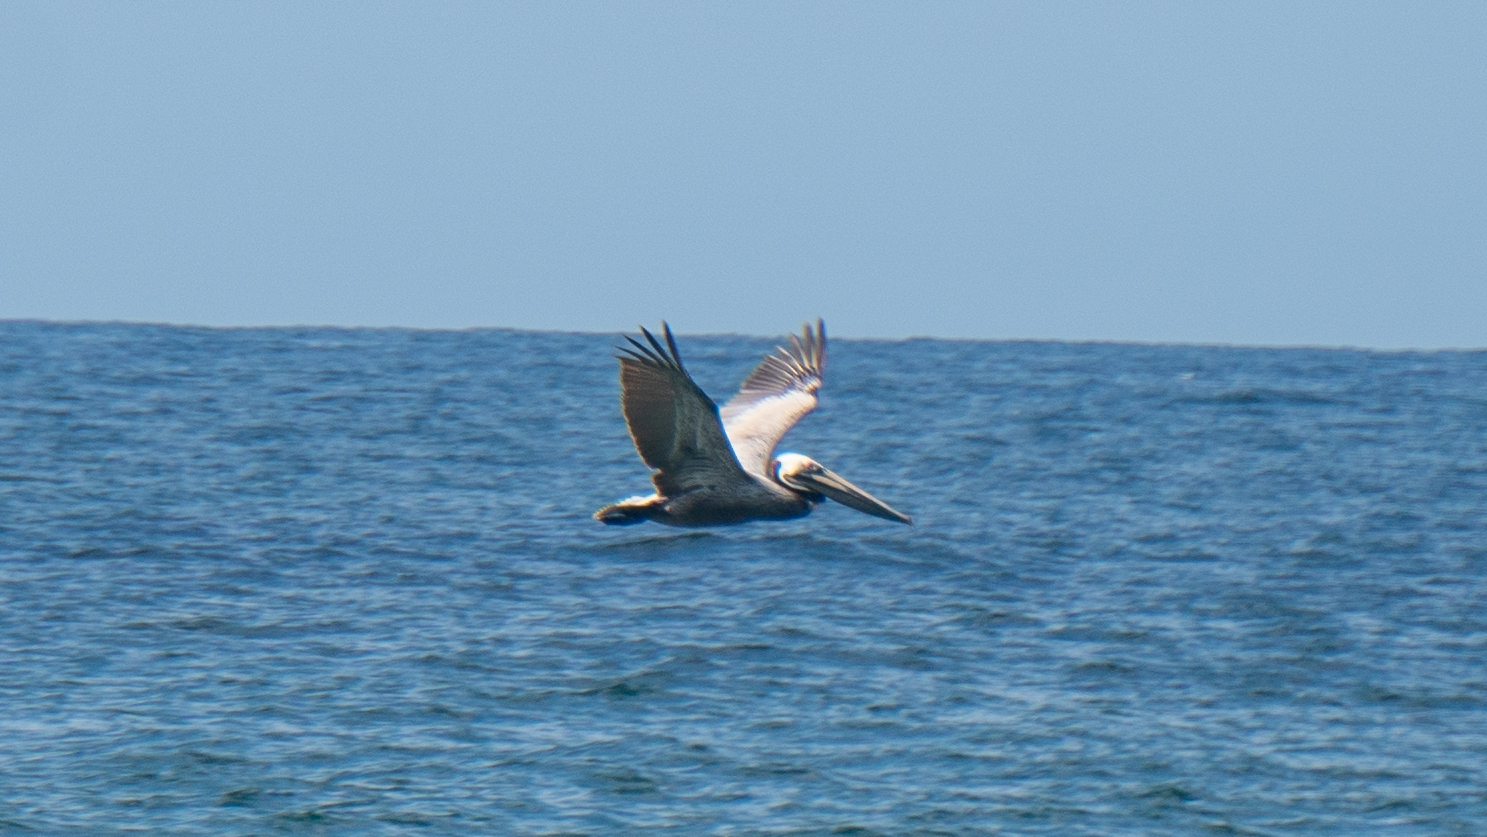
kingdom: Animalia
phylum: Chordata
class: Aves
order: Pelecaniformes
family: Pelecanidae
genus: Pelecanus
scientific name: Pelecanus occidentalis
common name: Brown pelican
